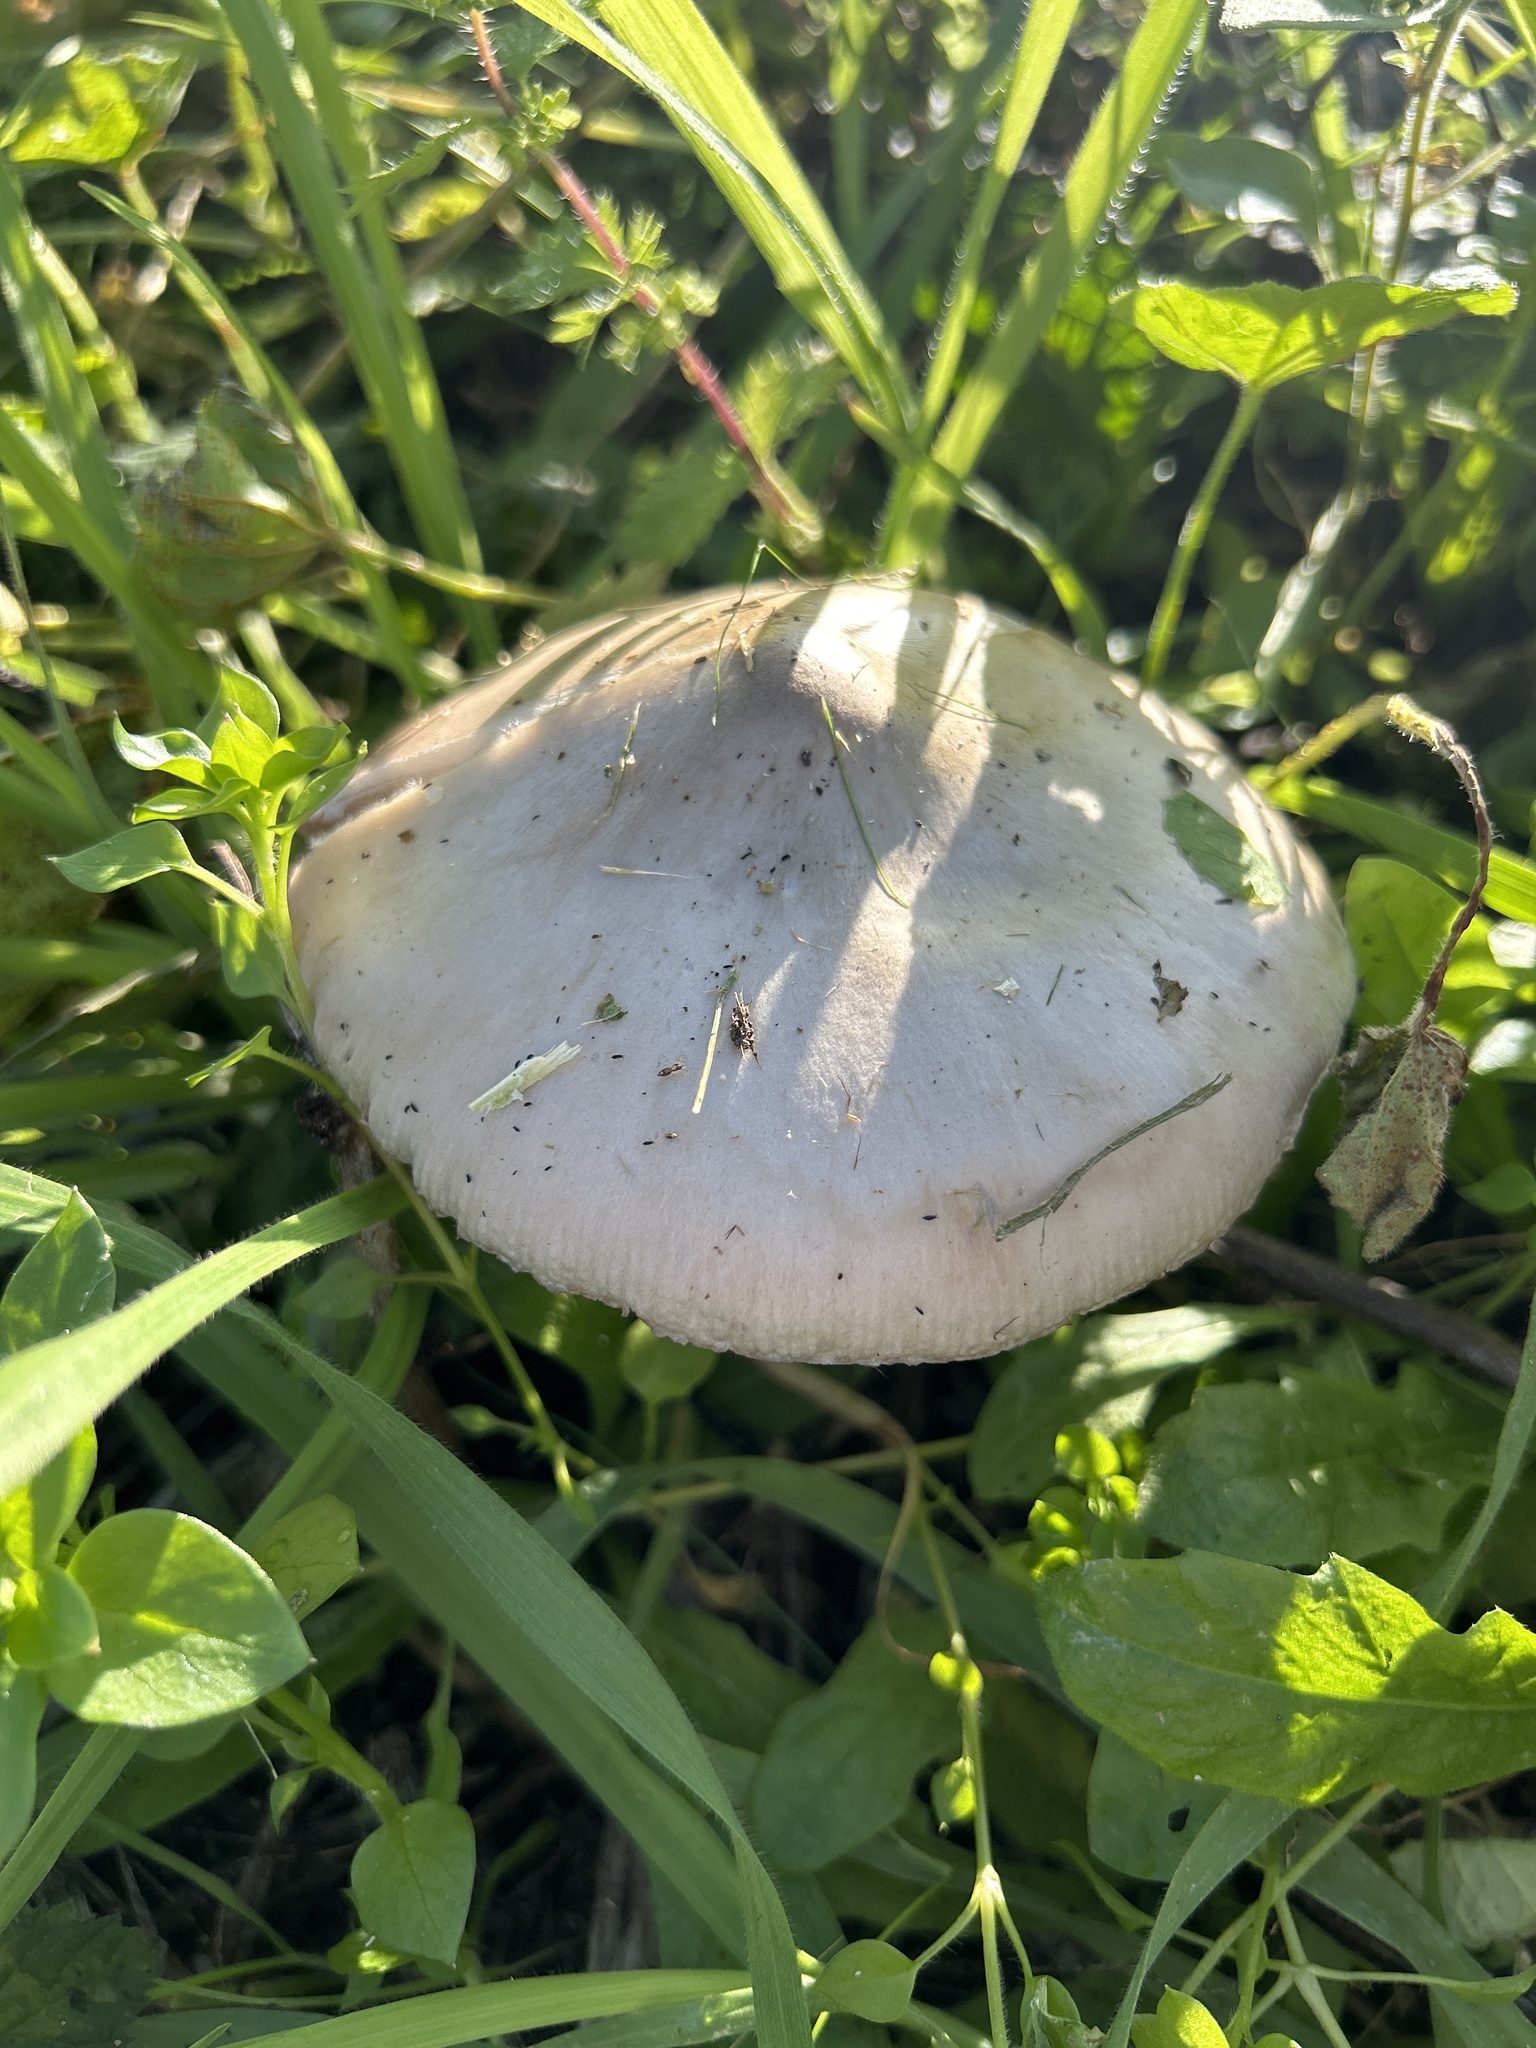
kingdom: Fungi
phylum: Basidiomycota
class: Agaricomycetes
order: Agaricales
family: Pluteaceae
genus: Volvopluteus
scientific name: Volvopluteus gloiocephalus
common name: Stubble rosegill
